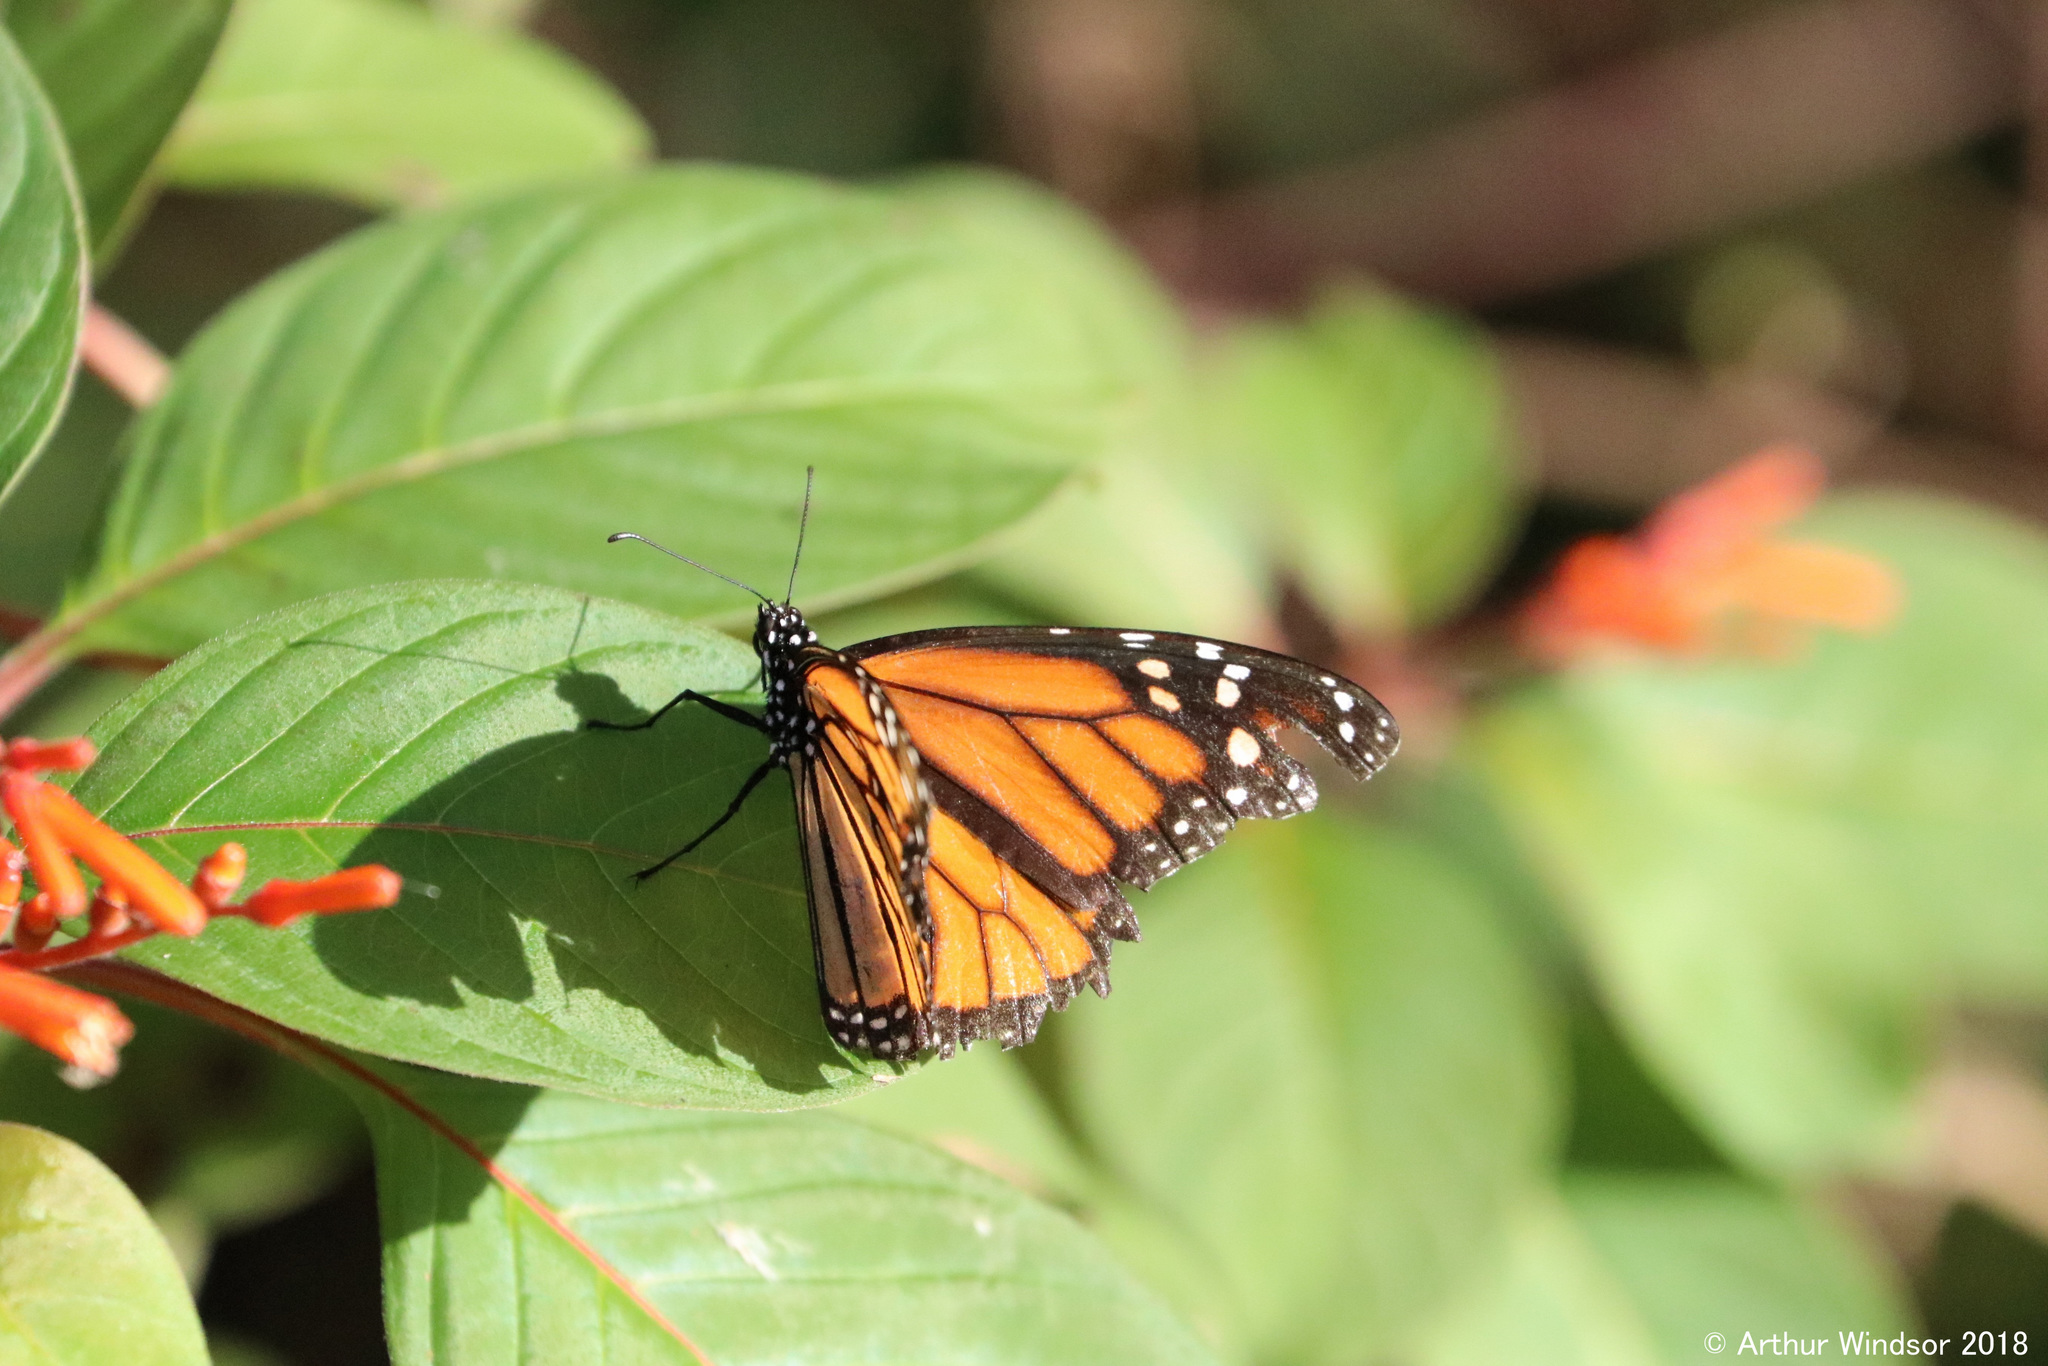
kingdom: Animalia
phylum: Arthropoda
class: Insecta
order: Lepidoptera
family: Nymphalidae
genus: Danaus
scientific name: Danaus plexippus
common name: Monarch
